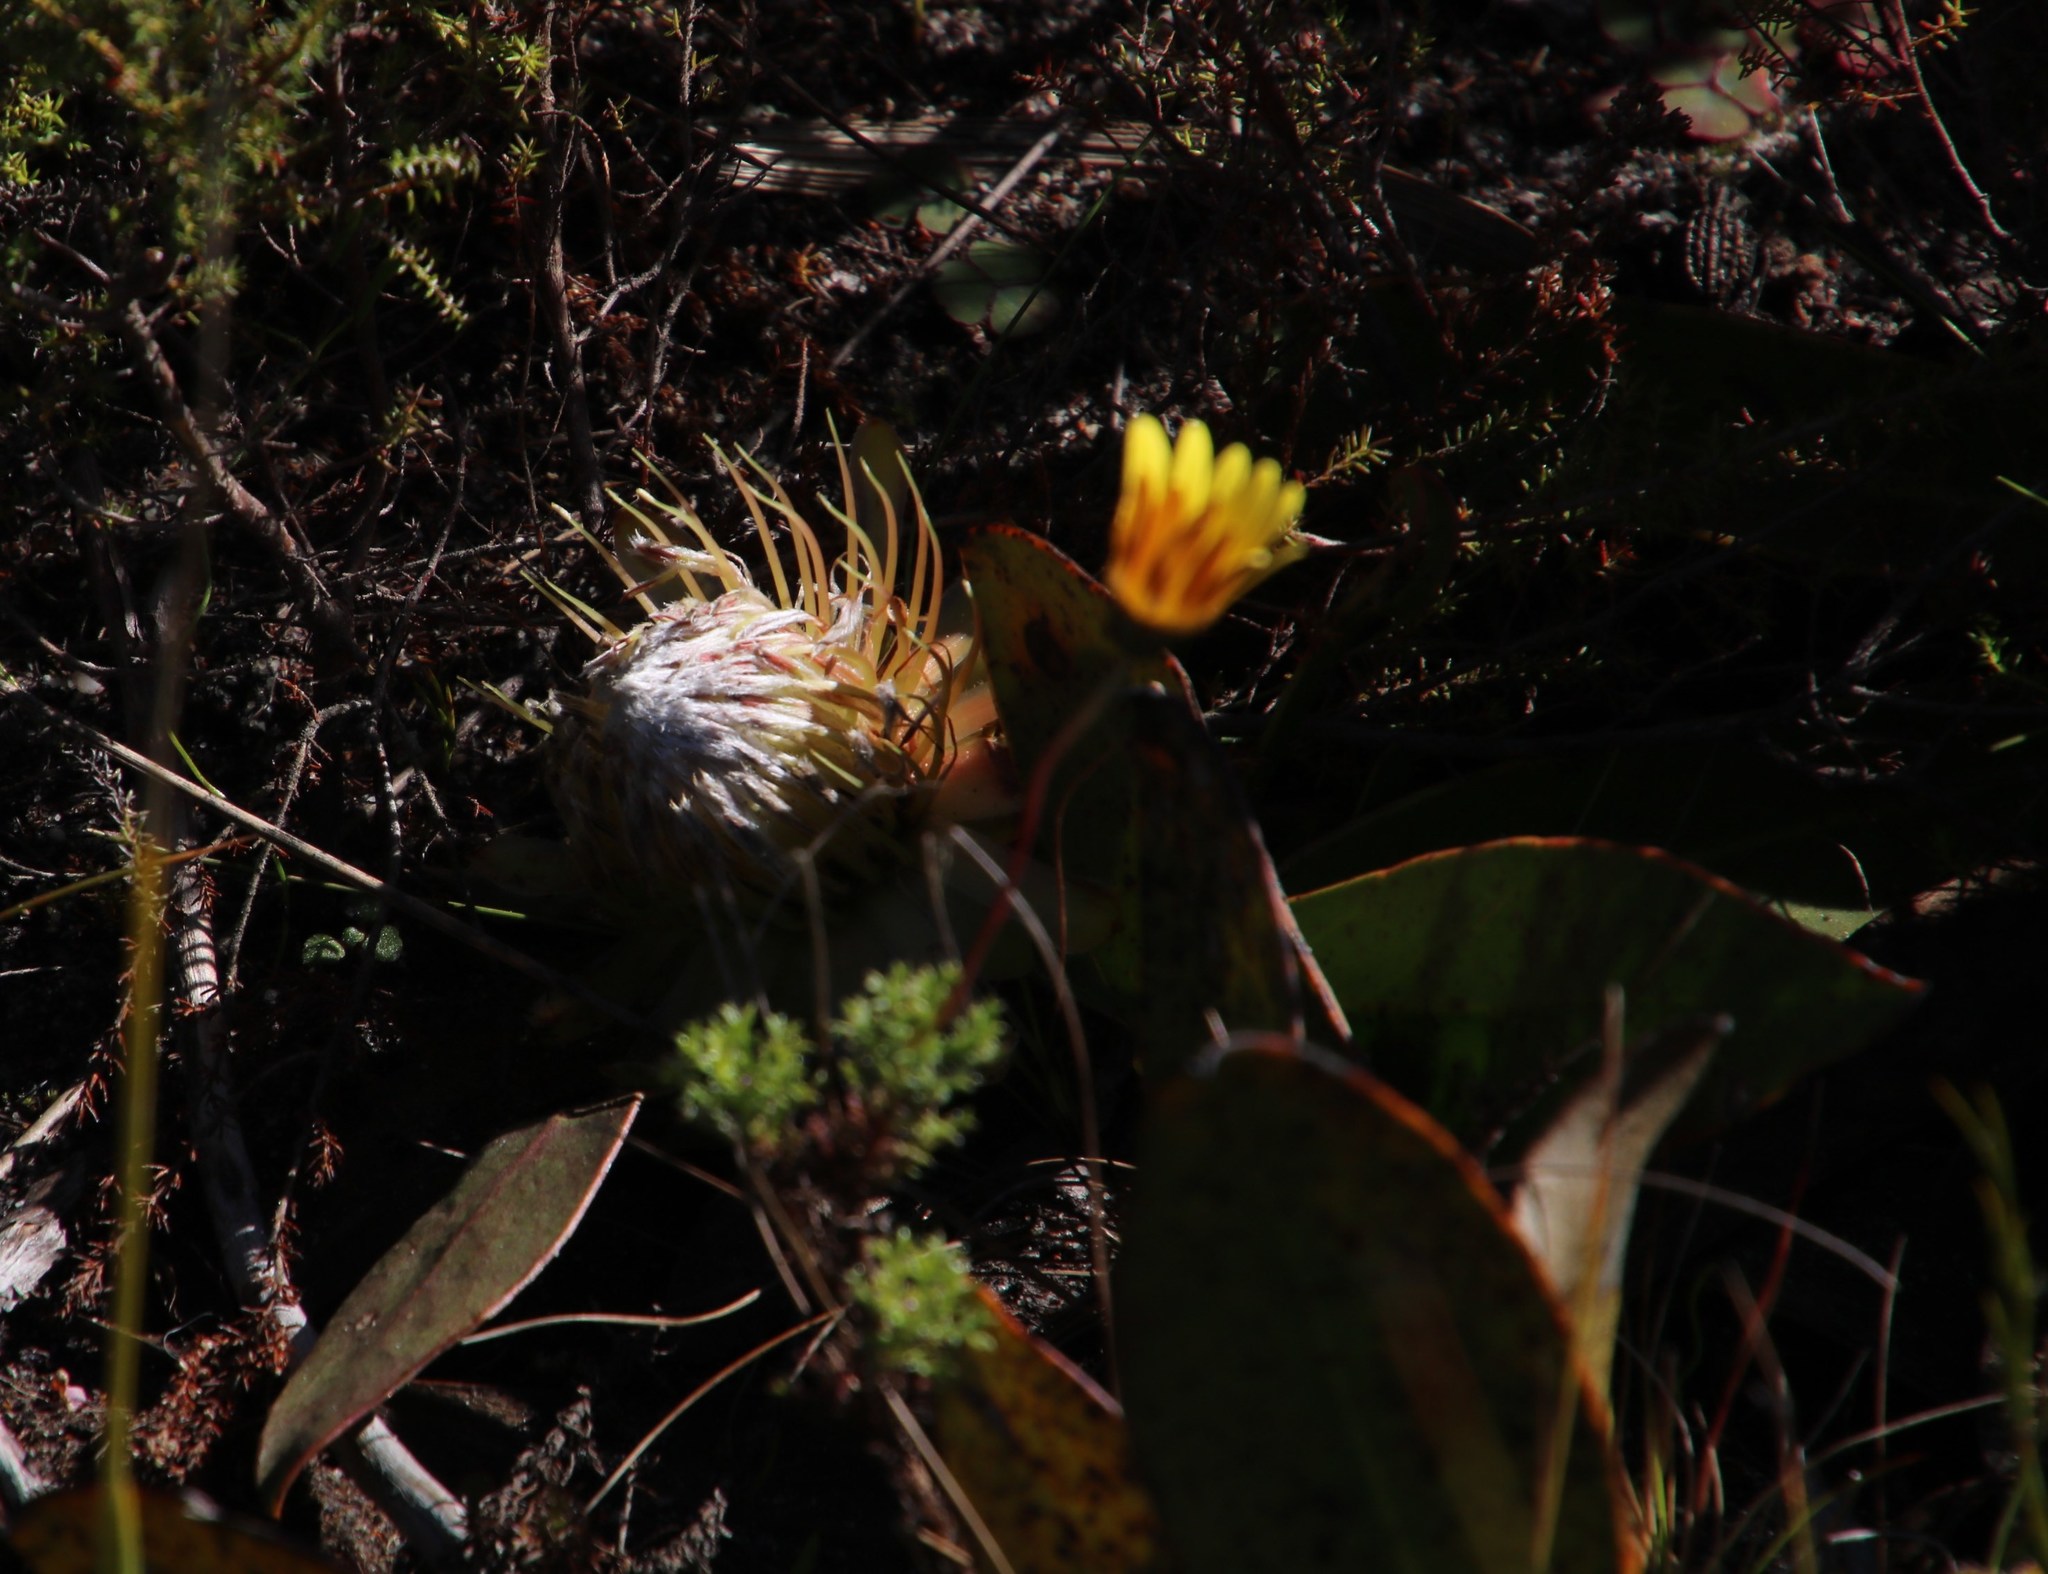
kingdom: Plantae
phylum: Tracheophyta
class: Magnoliopsida
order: Proteales
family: Proteaceae
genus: Protea
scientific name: Protea acaulos
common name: Common ground sugarbush
